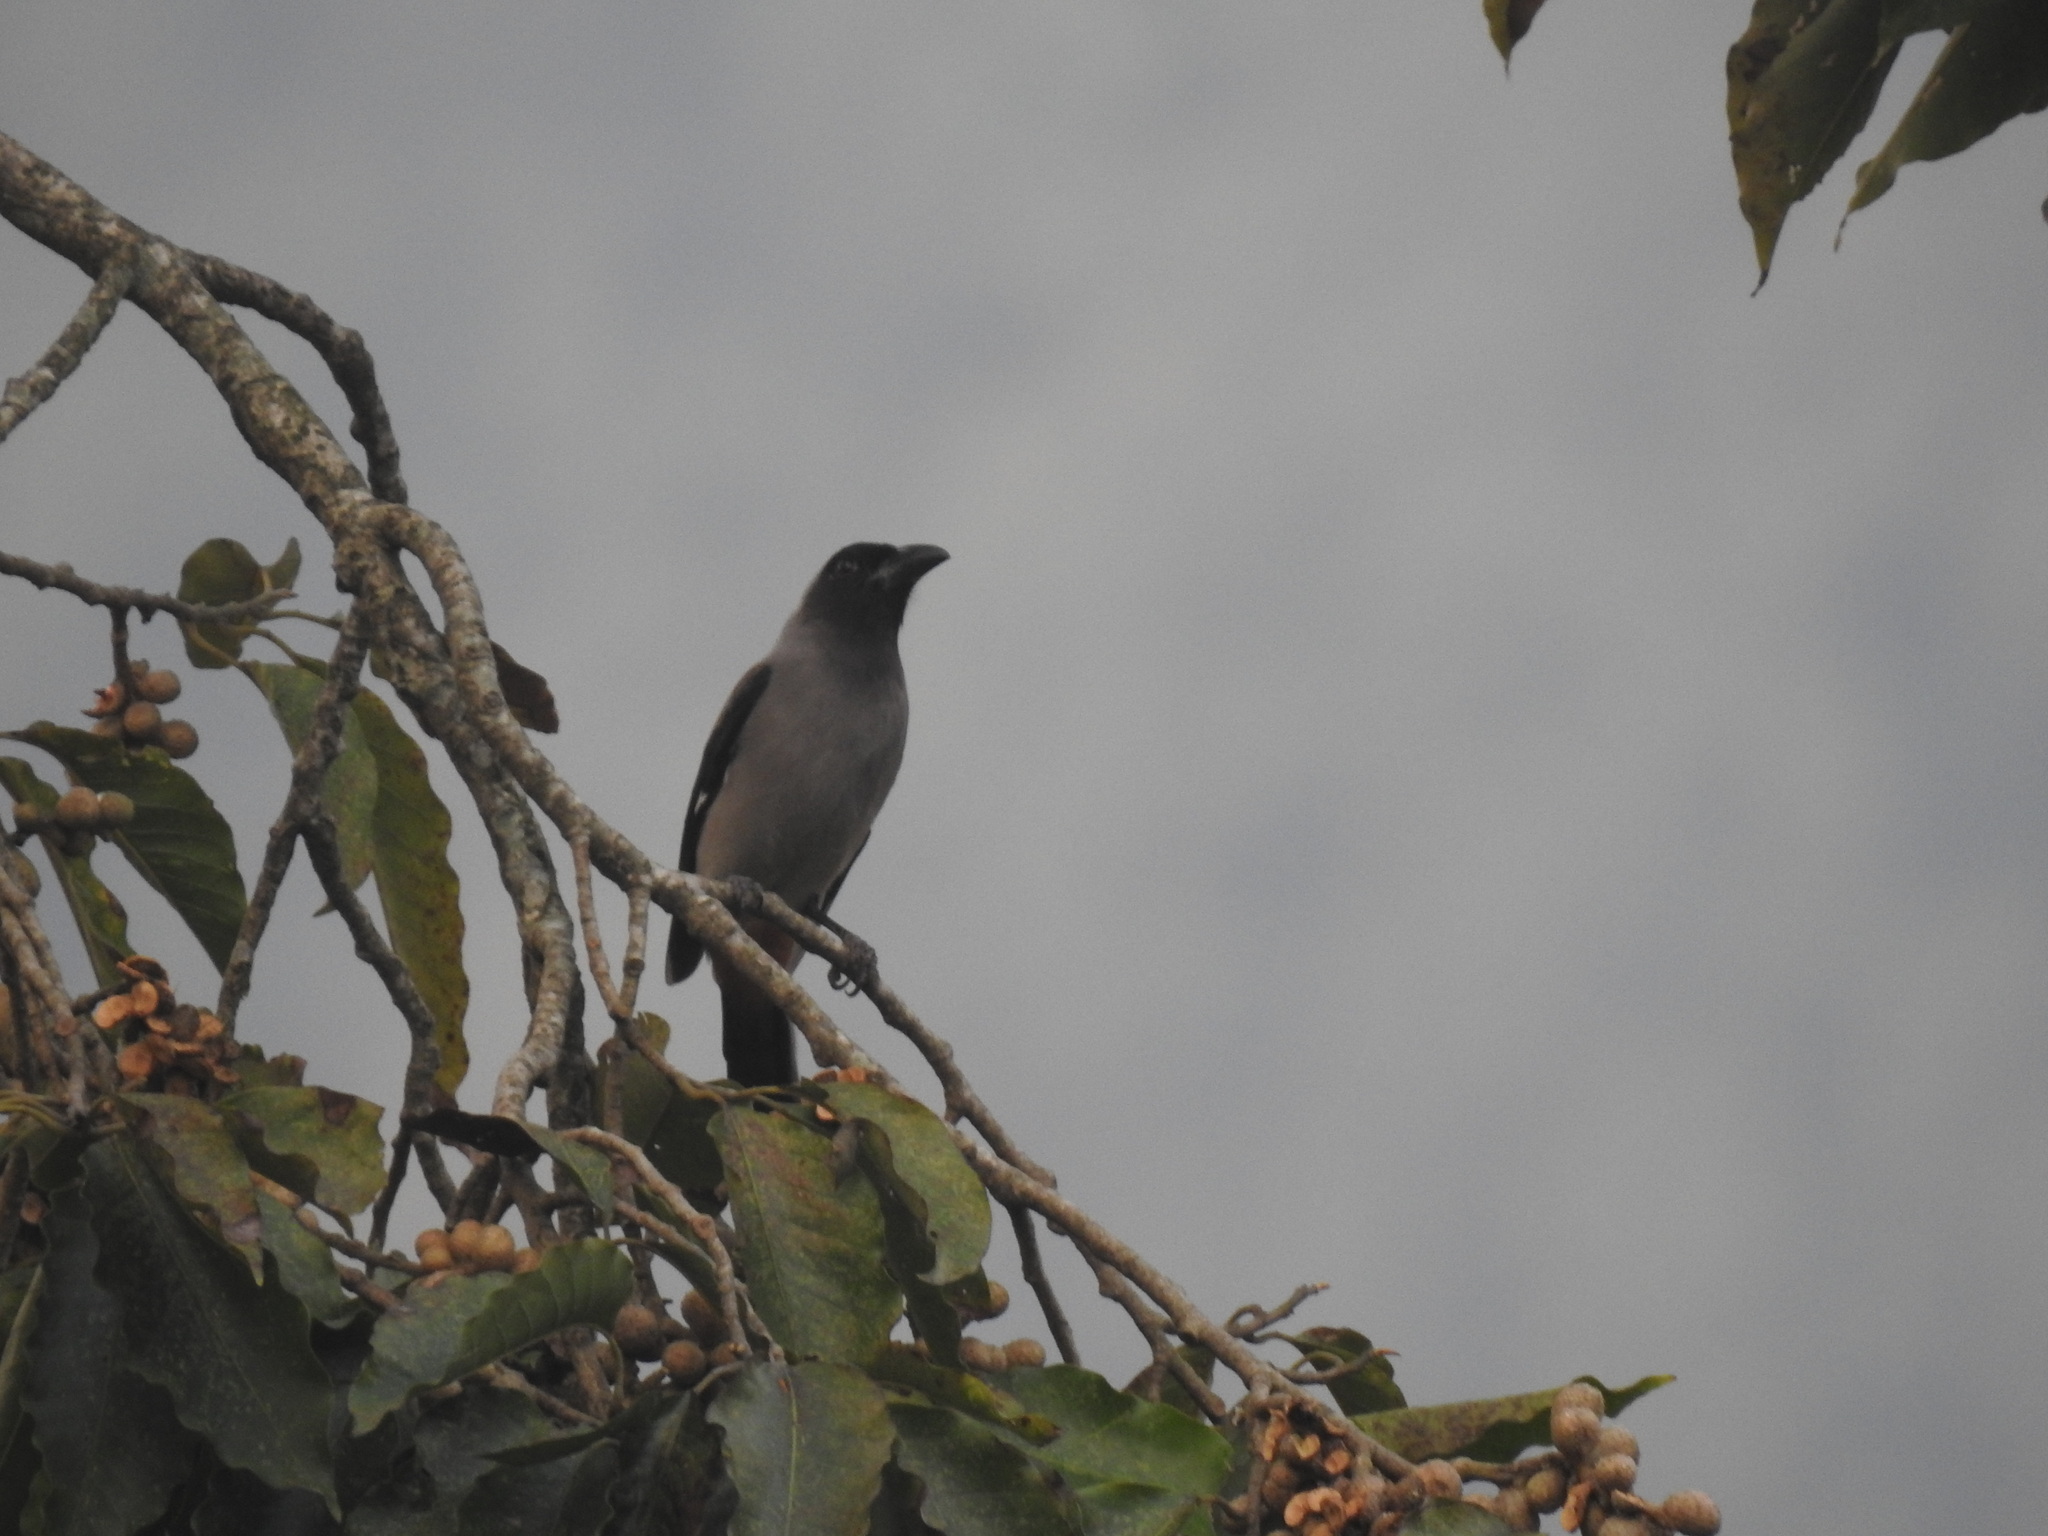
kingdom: Animalia
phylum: Chordata
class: Aves
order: Passeriformes
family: Corvidae
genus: Dendrocitta
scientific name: Dendrocitta formosae
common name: Grey treepie
